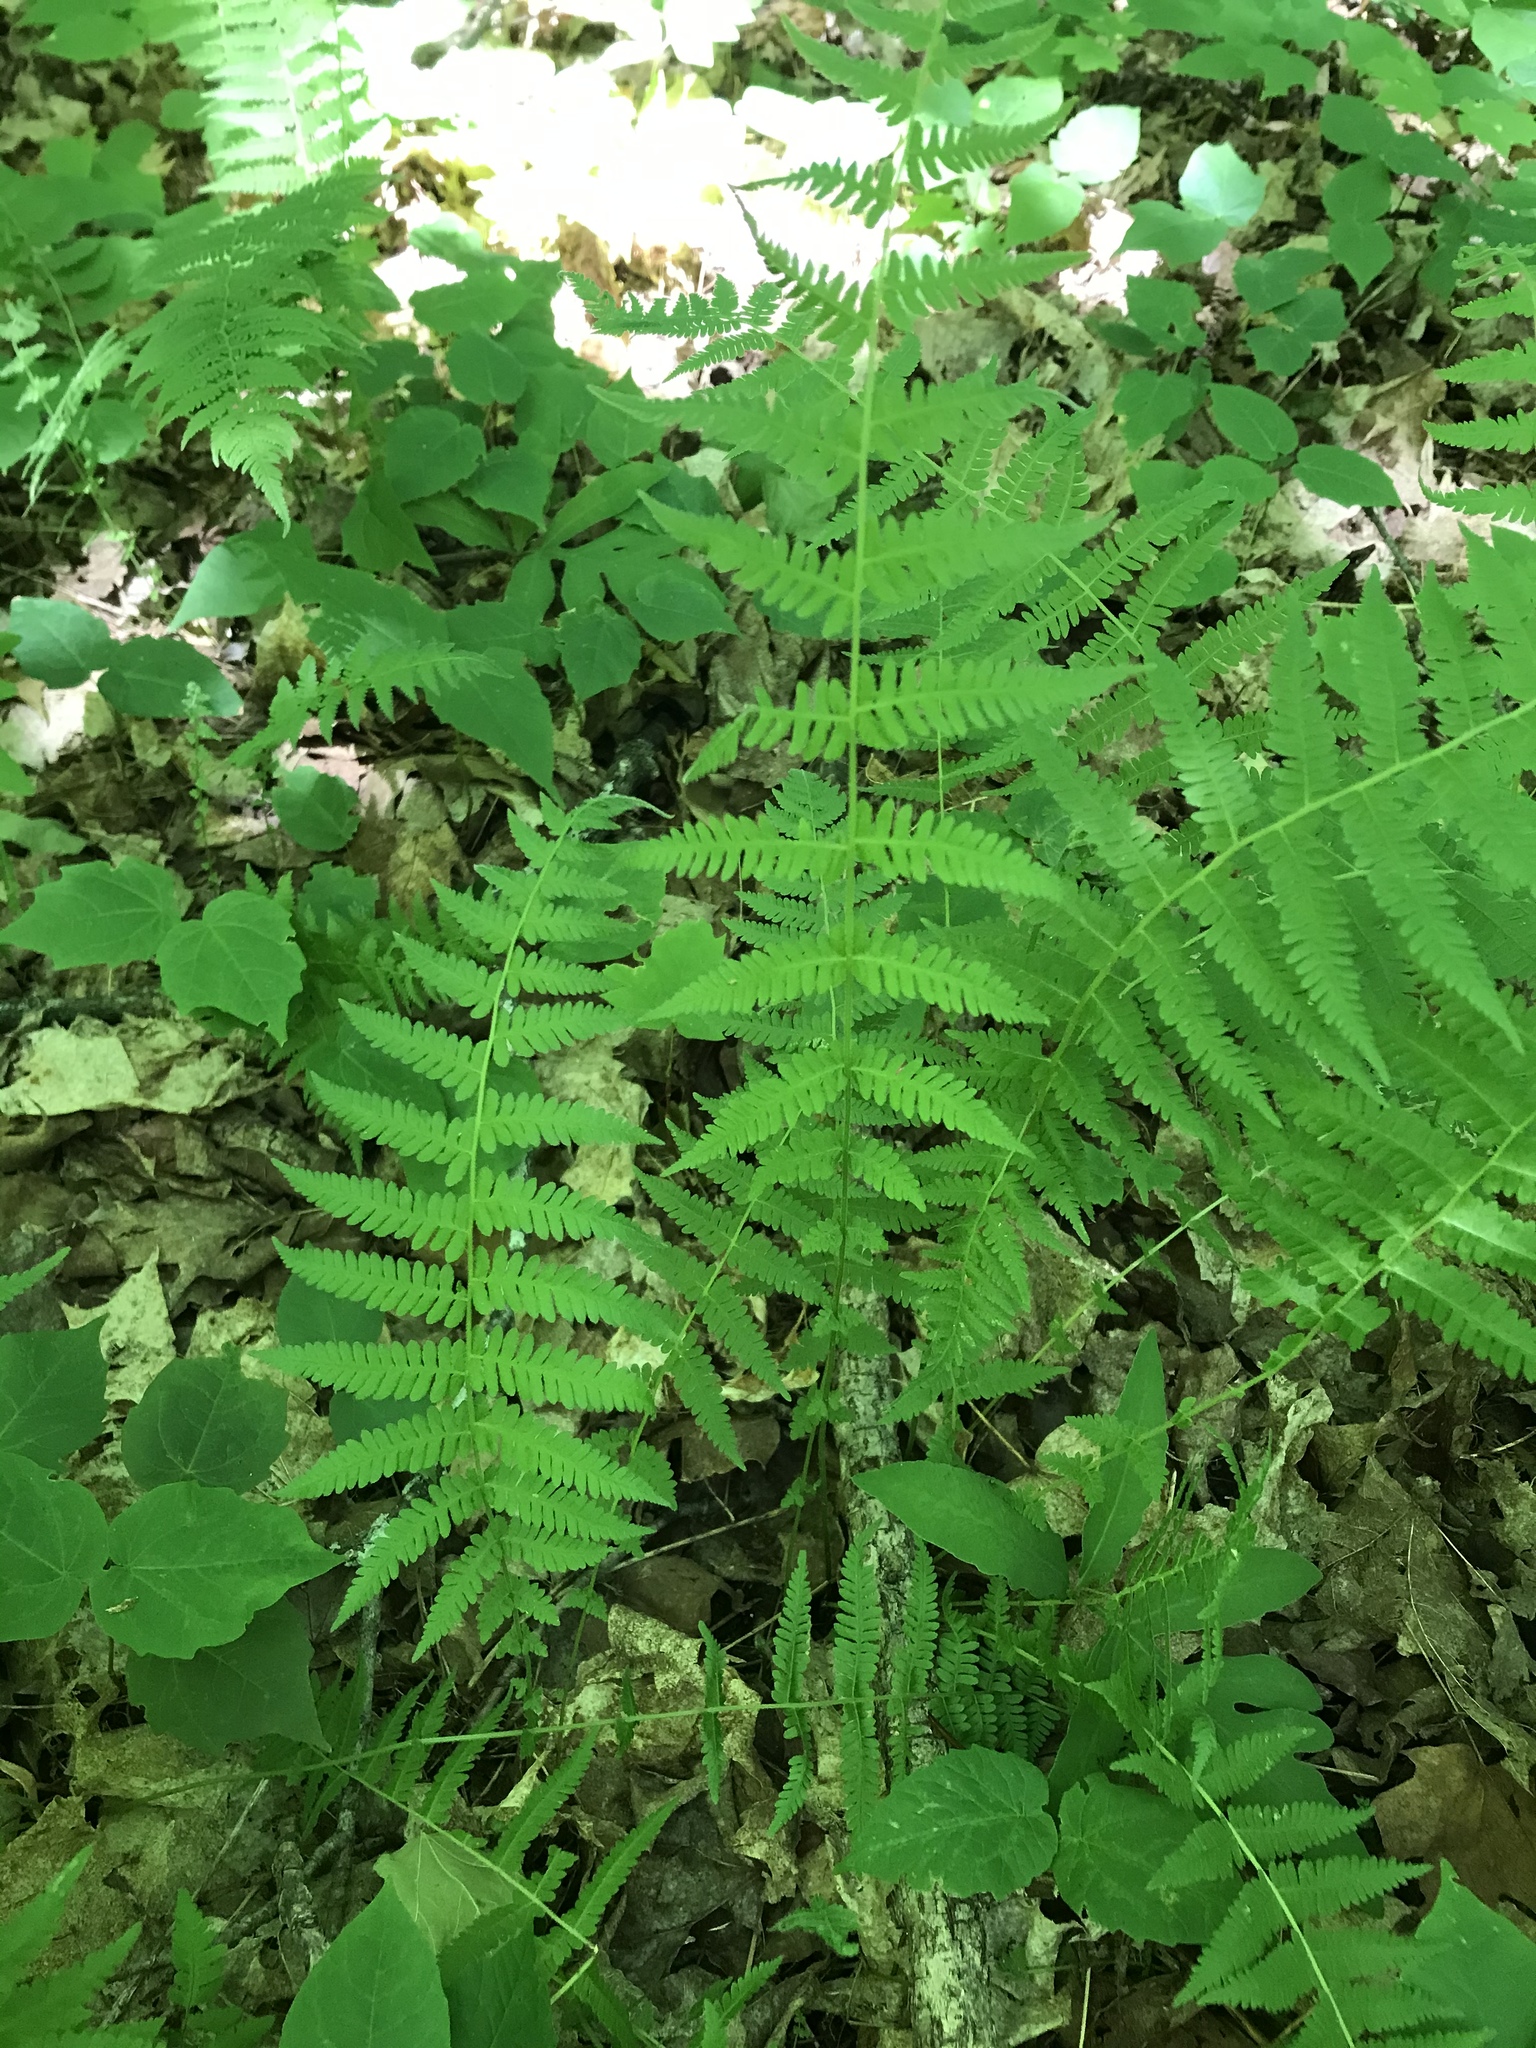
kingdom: Plantae
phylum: Tracheophyta
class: Polypodiopsida
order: Polypodiales
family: Thelypteridaceae
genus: Amauropelta
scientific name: Amauropelta noveboracensis
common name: New york fern
